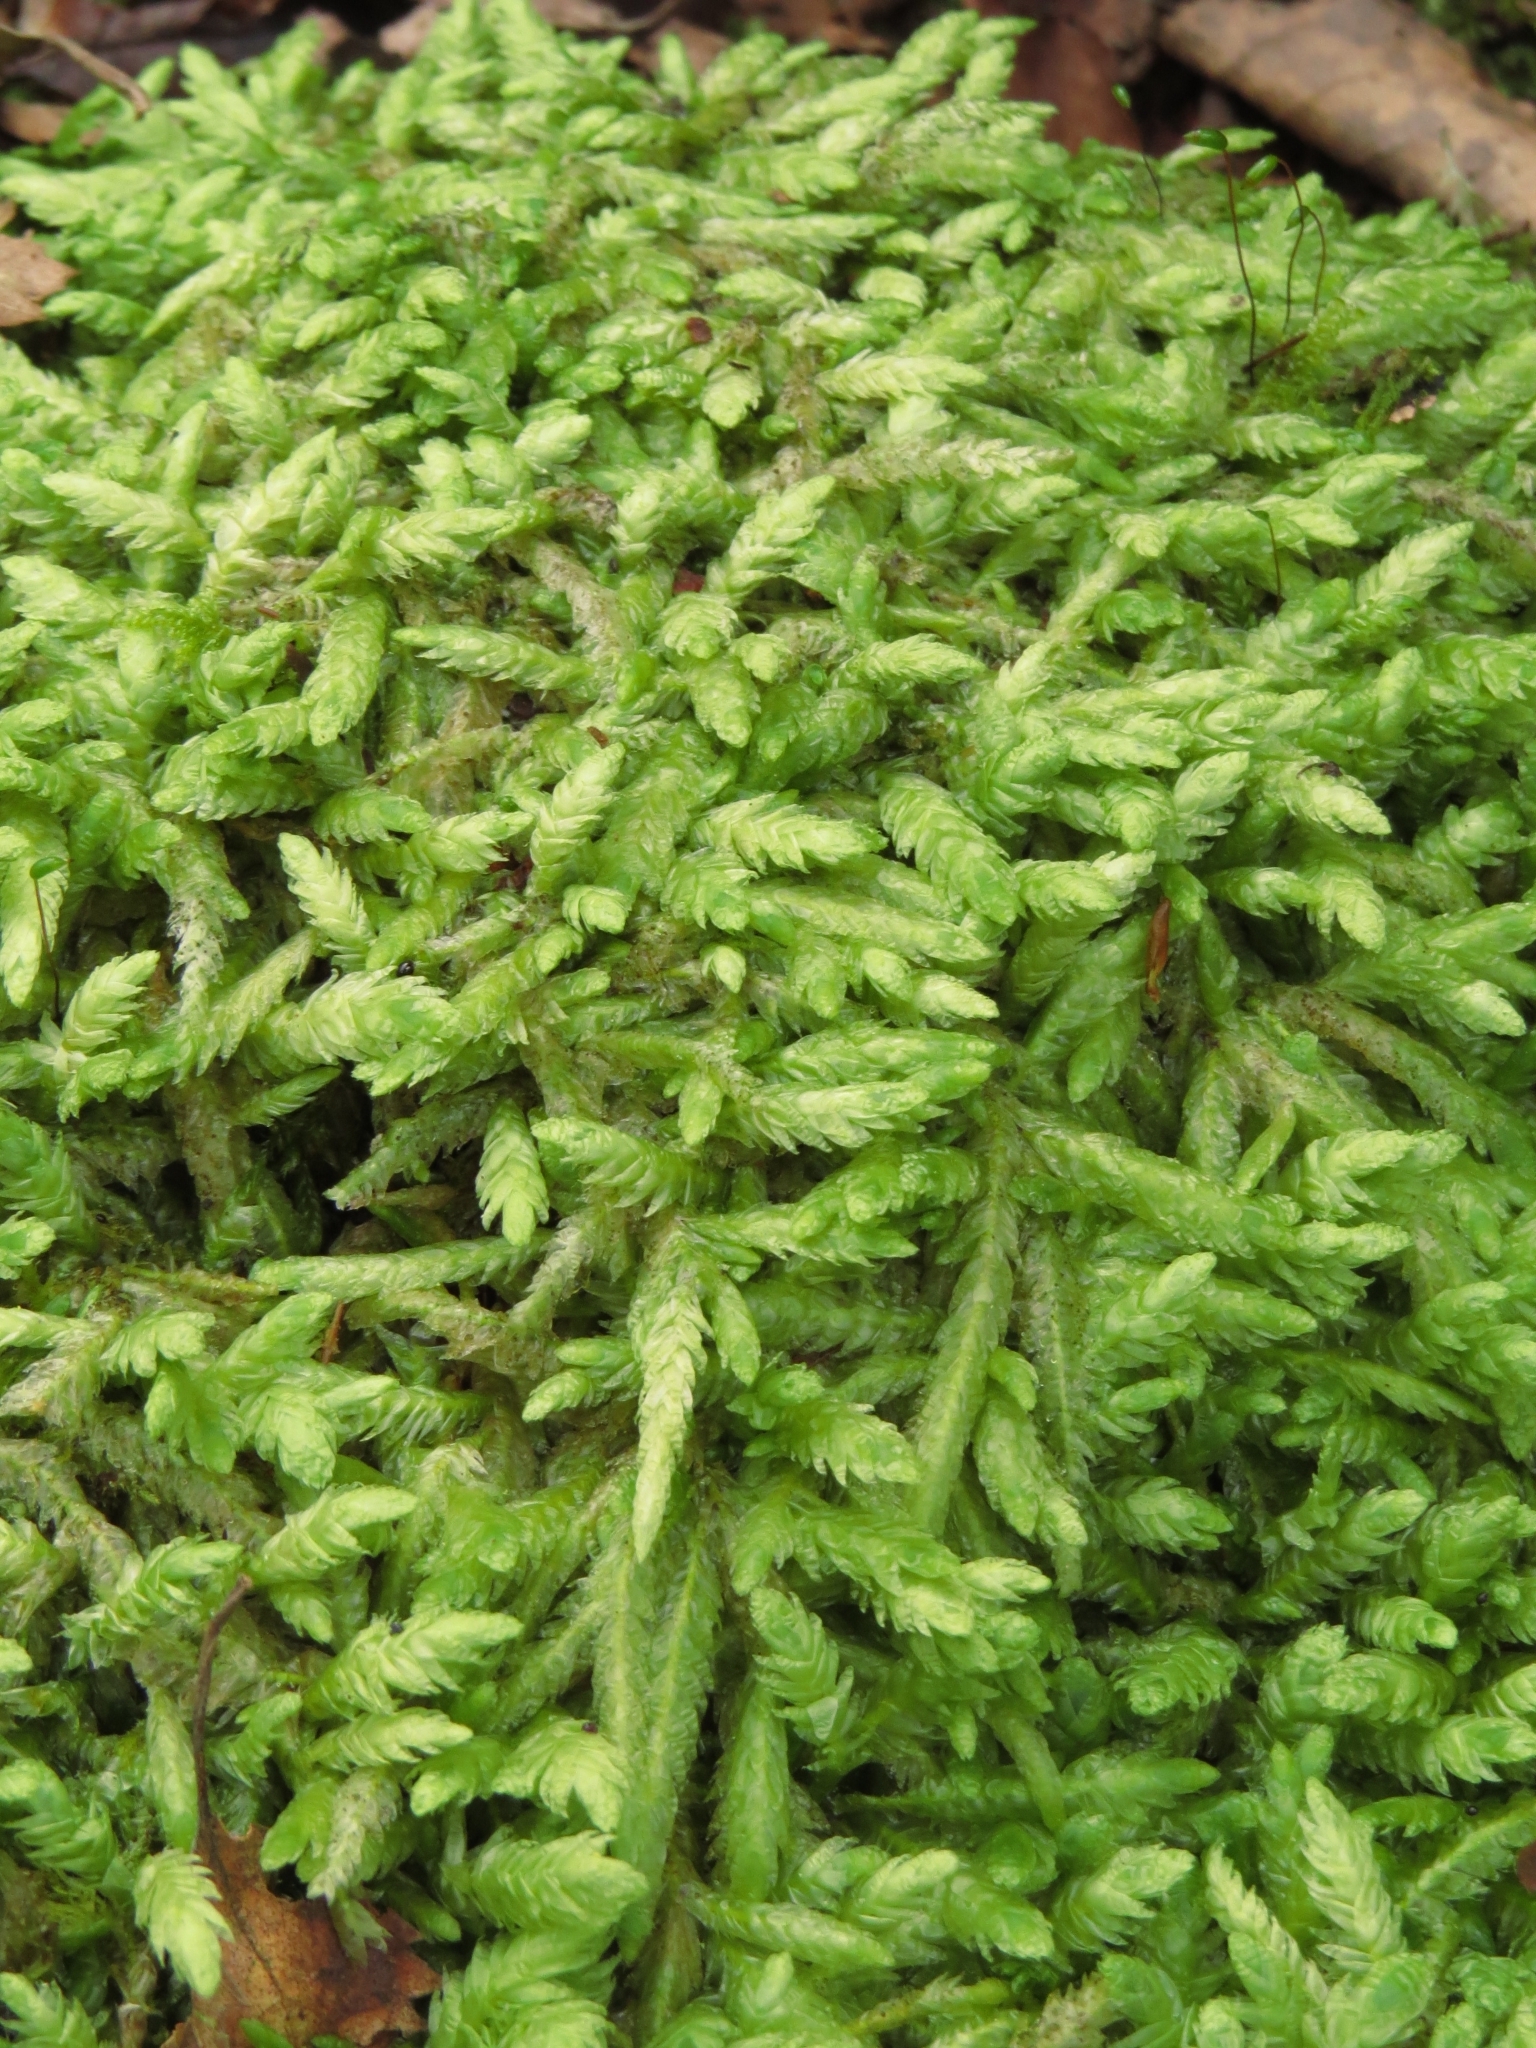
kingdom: Plantae
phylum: Bryophyta
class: Bryopsida
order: Hypnales
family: Plagiotheciaceae
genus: Plagiothecium
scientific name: Plagiothecium undulatum
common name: Waved silk-moss
